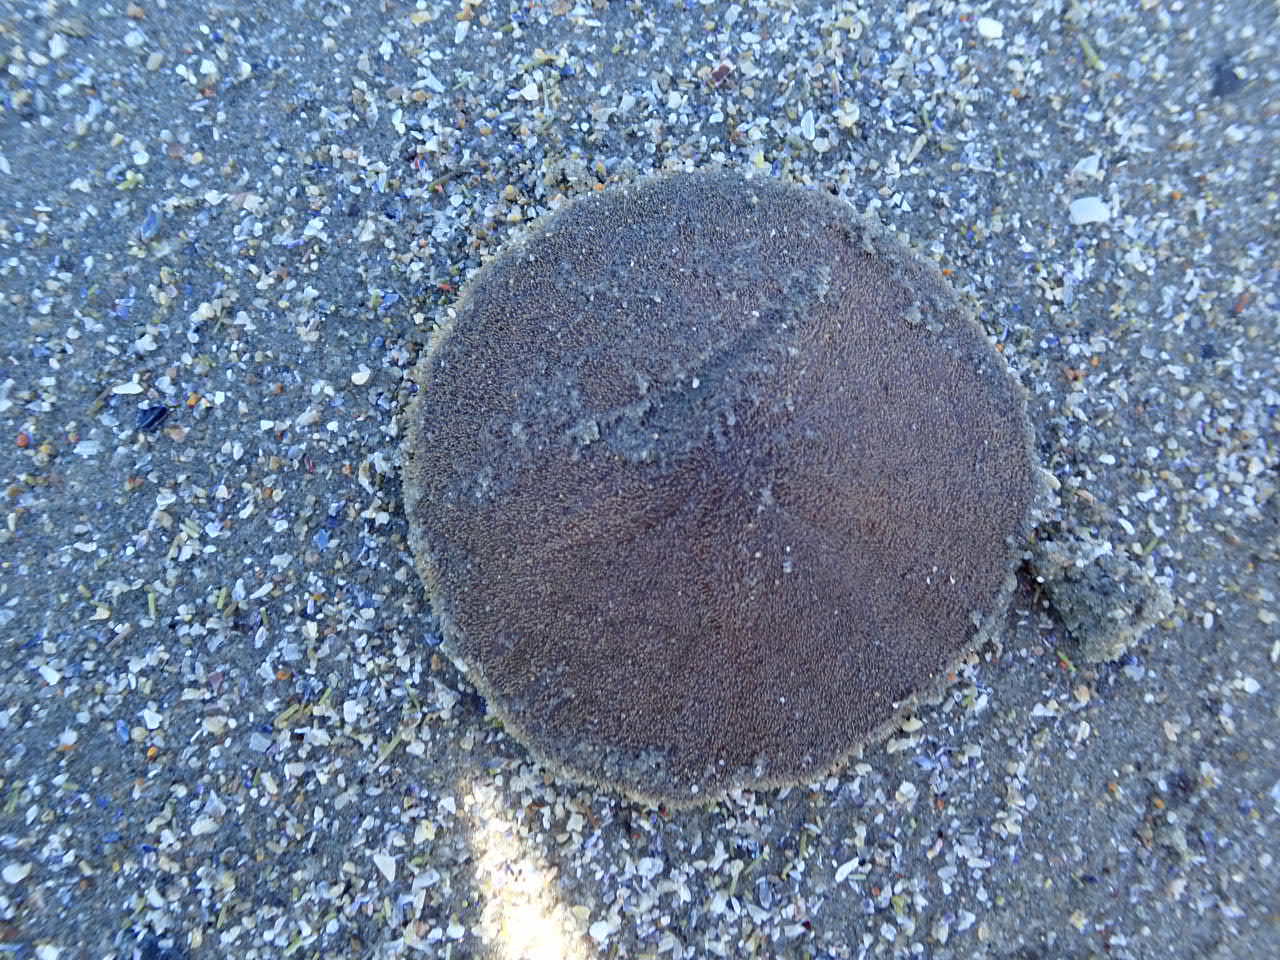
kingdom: Animalia
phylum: Echinodermata
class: Echinoidea
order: Echinolampadacea
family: Echinarachniidae
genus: Echinarachnius
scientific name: Echinarachnius parma
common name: Common sand dollar
